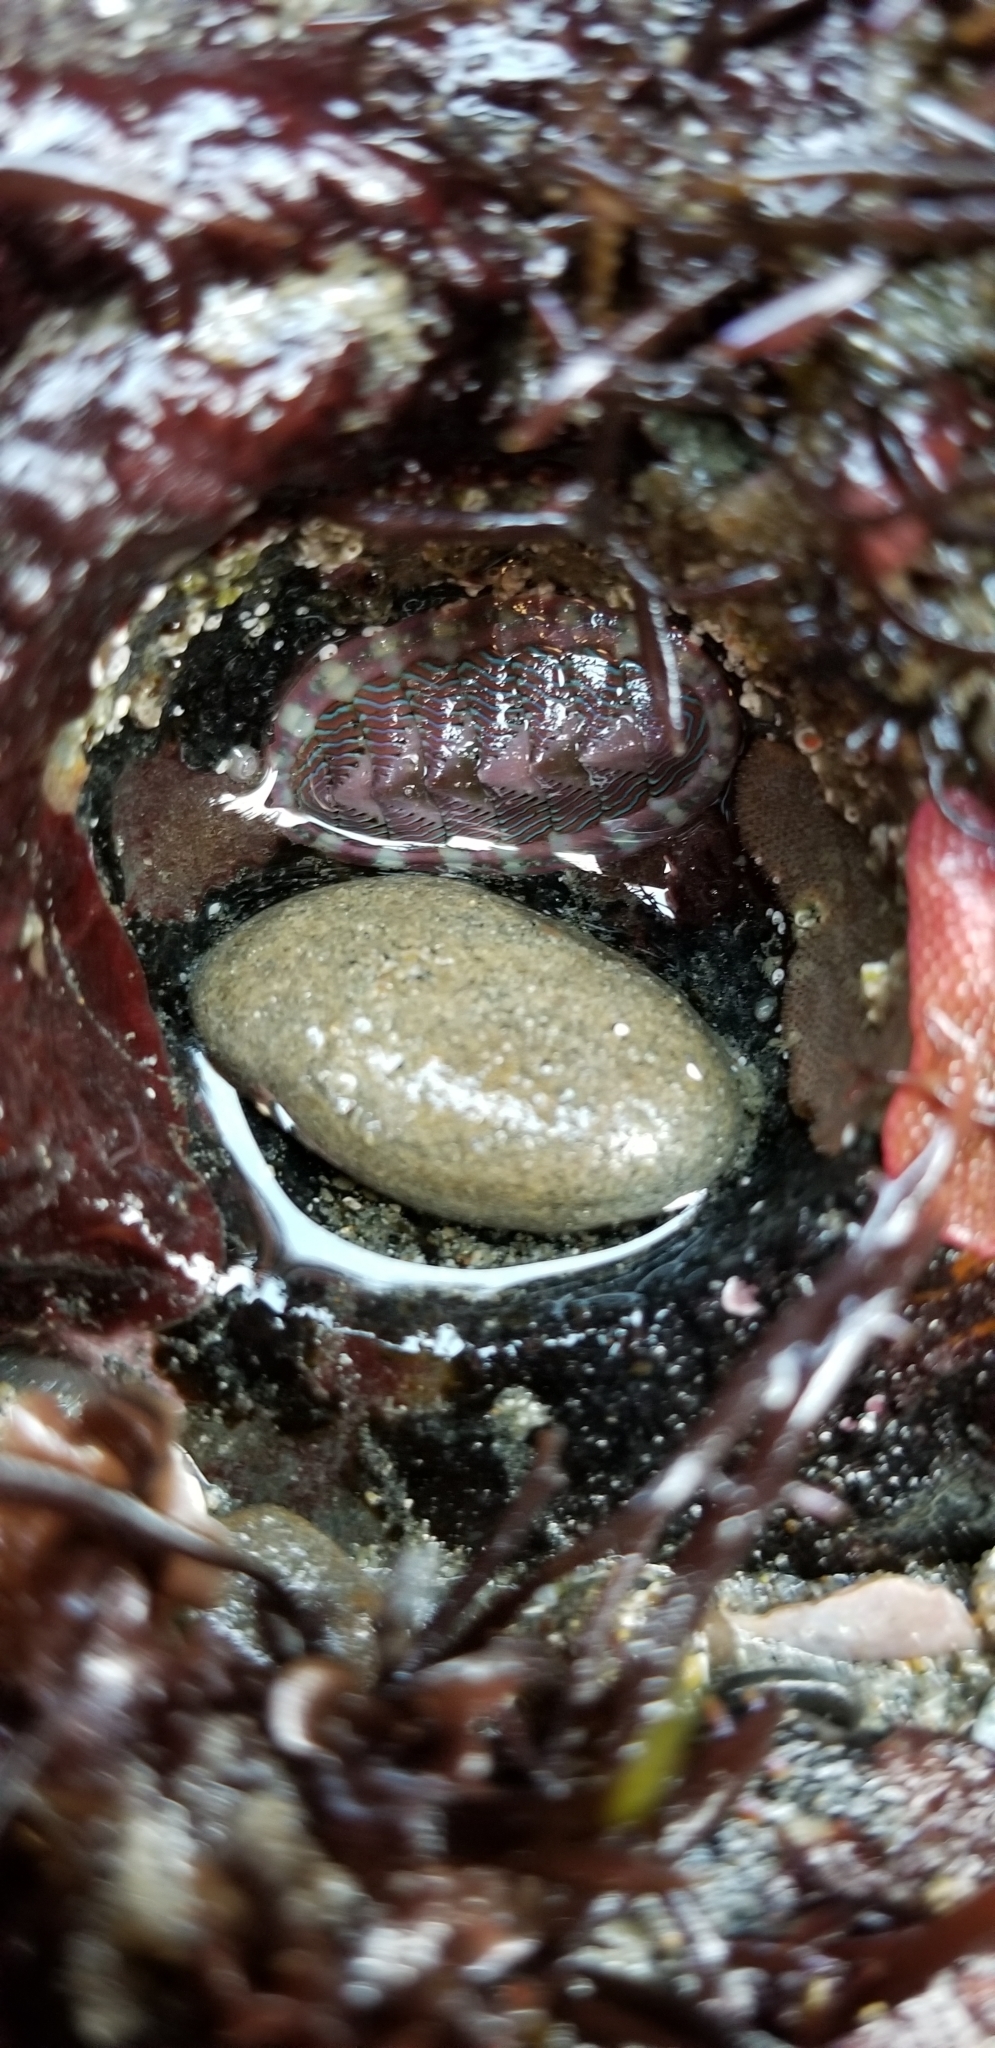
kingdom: Animalia
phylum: Mollusca
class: Polyplacophora
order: Chitonida
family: Tonicellidae
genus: Tonicella
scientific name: Tonicella lineata
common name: Lined chiton
